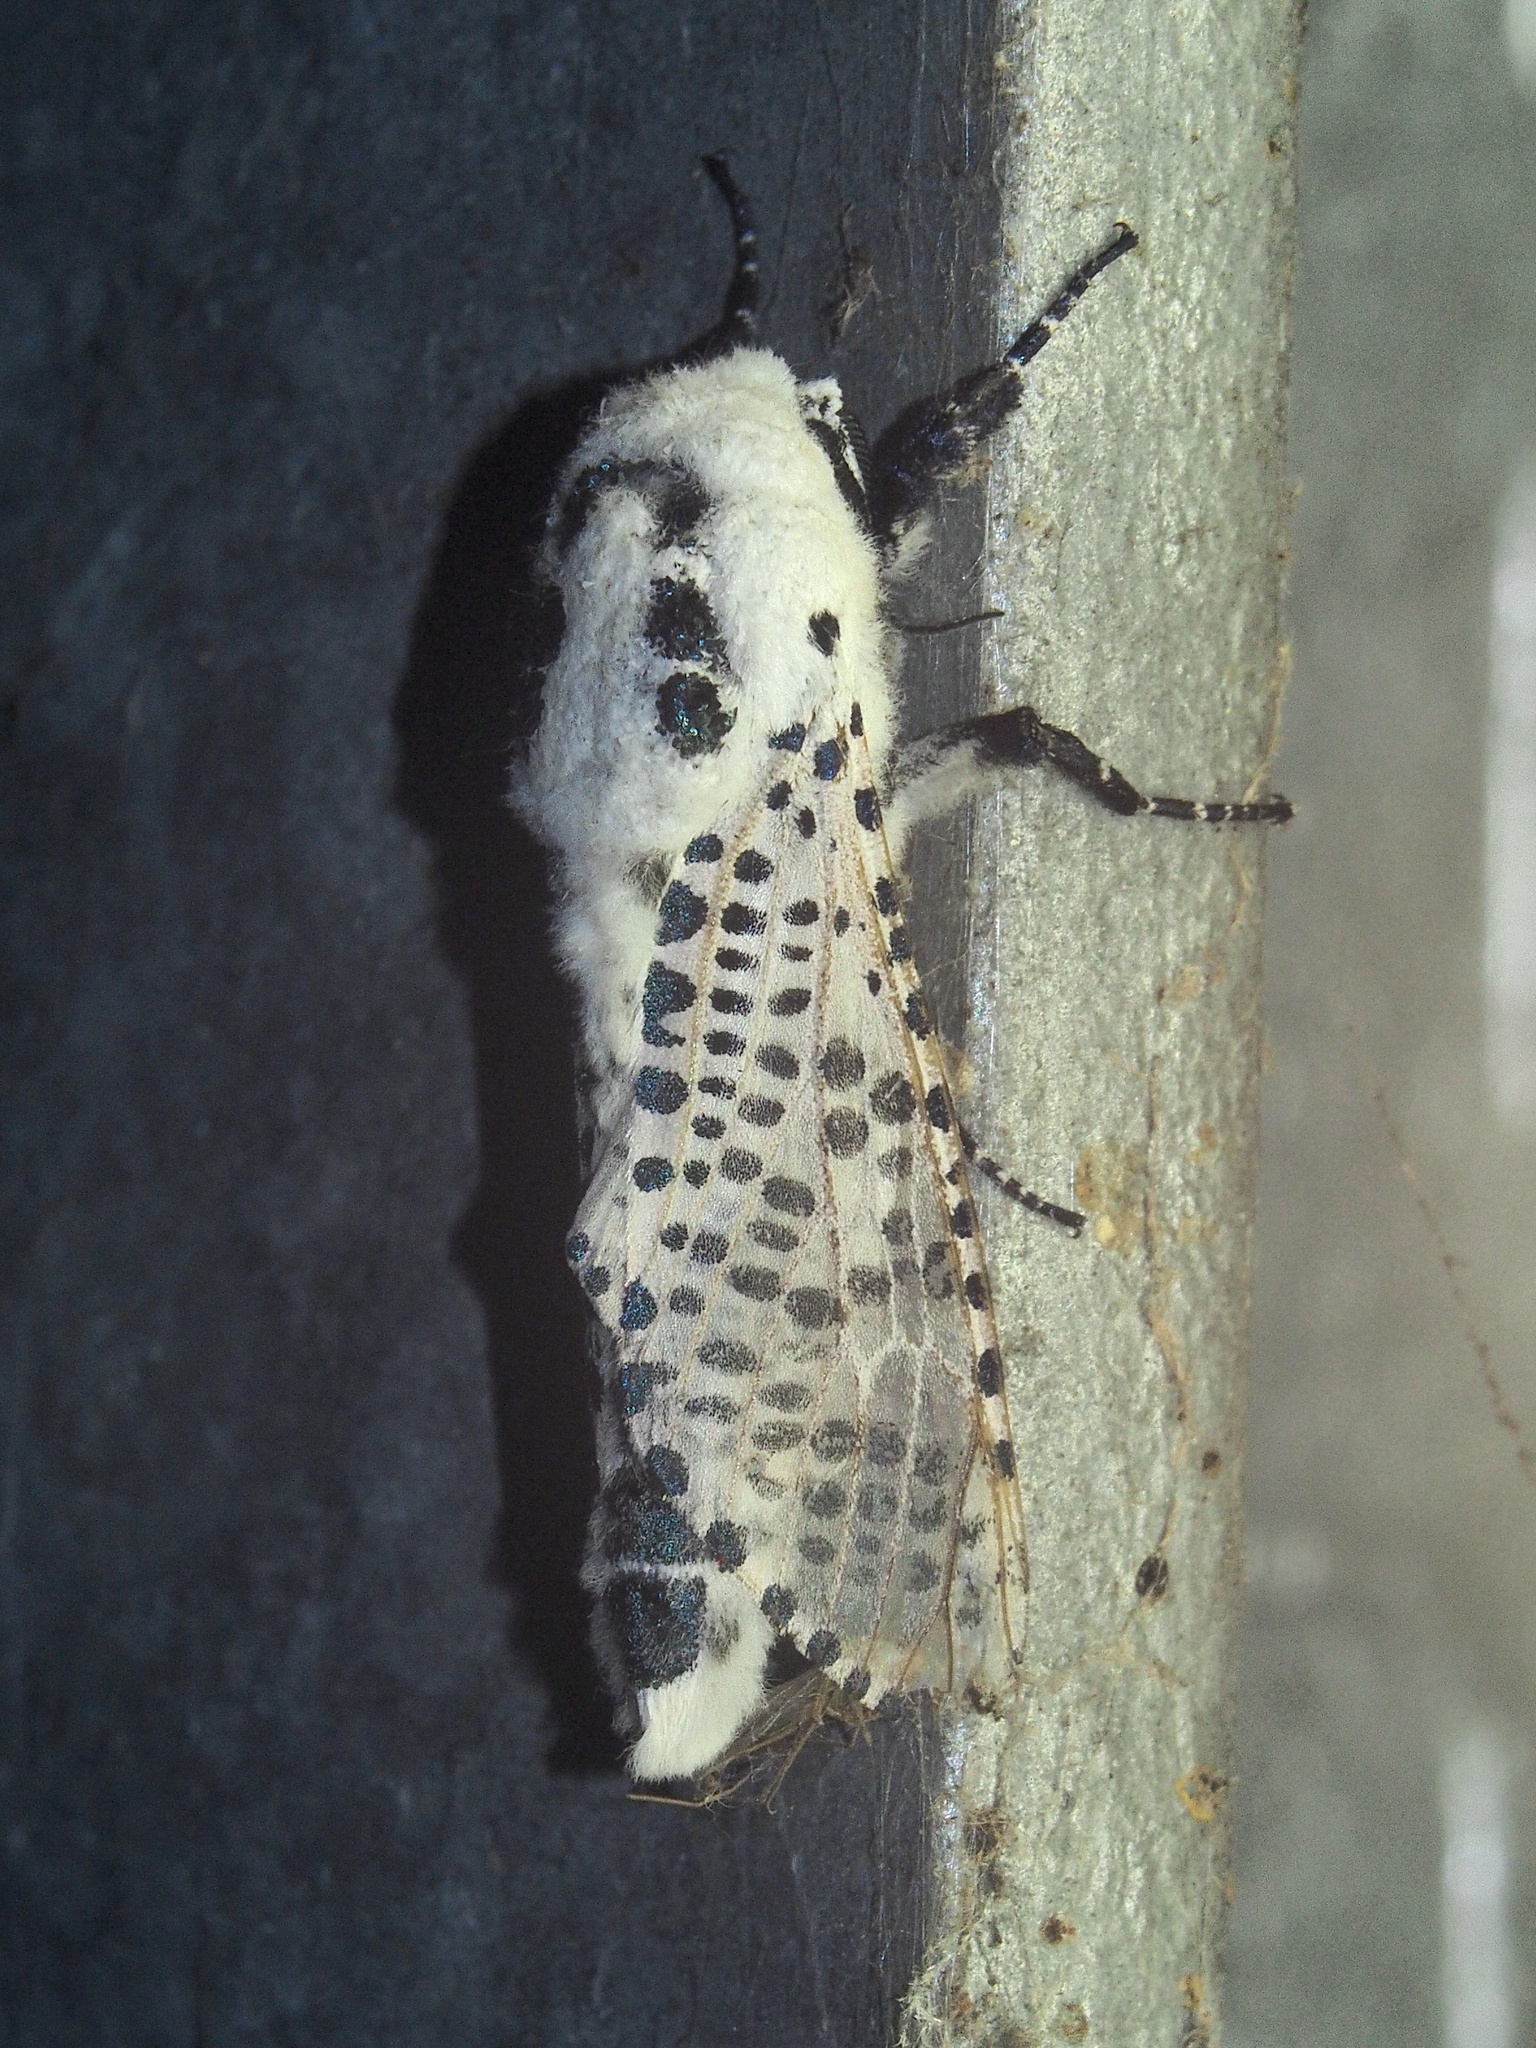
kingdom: Animalia
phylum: Arthropoda
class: Insecta
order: Lepidoptera
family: Cossidae
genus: Zeuzera
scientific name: Zeuzera pyrina
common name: Leopard moth
